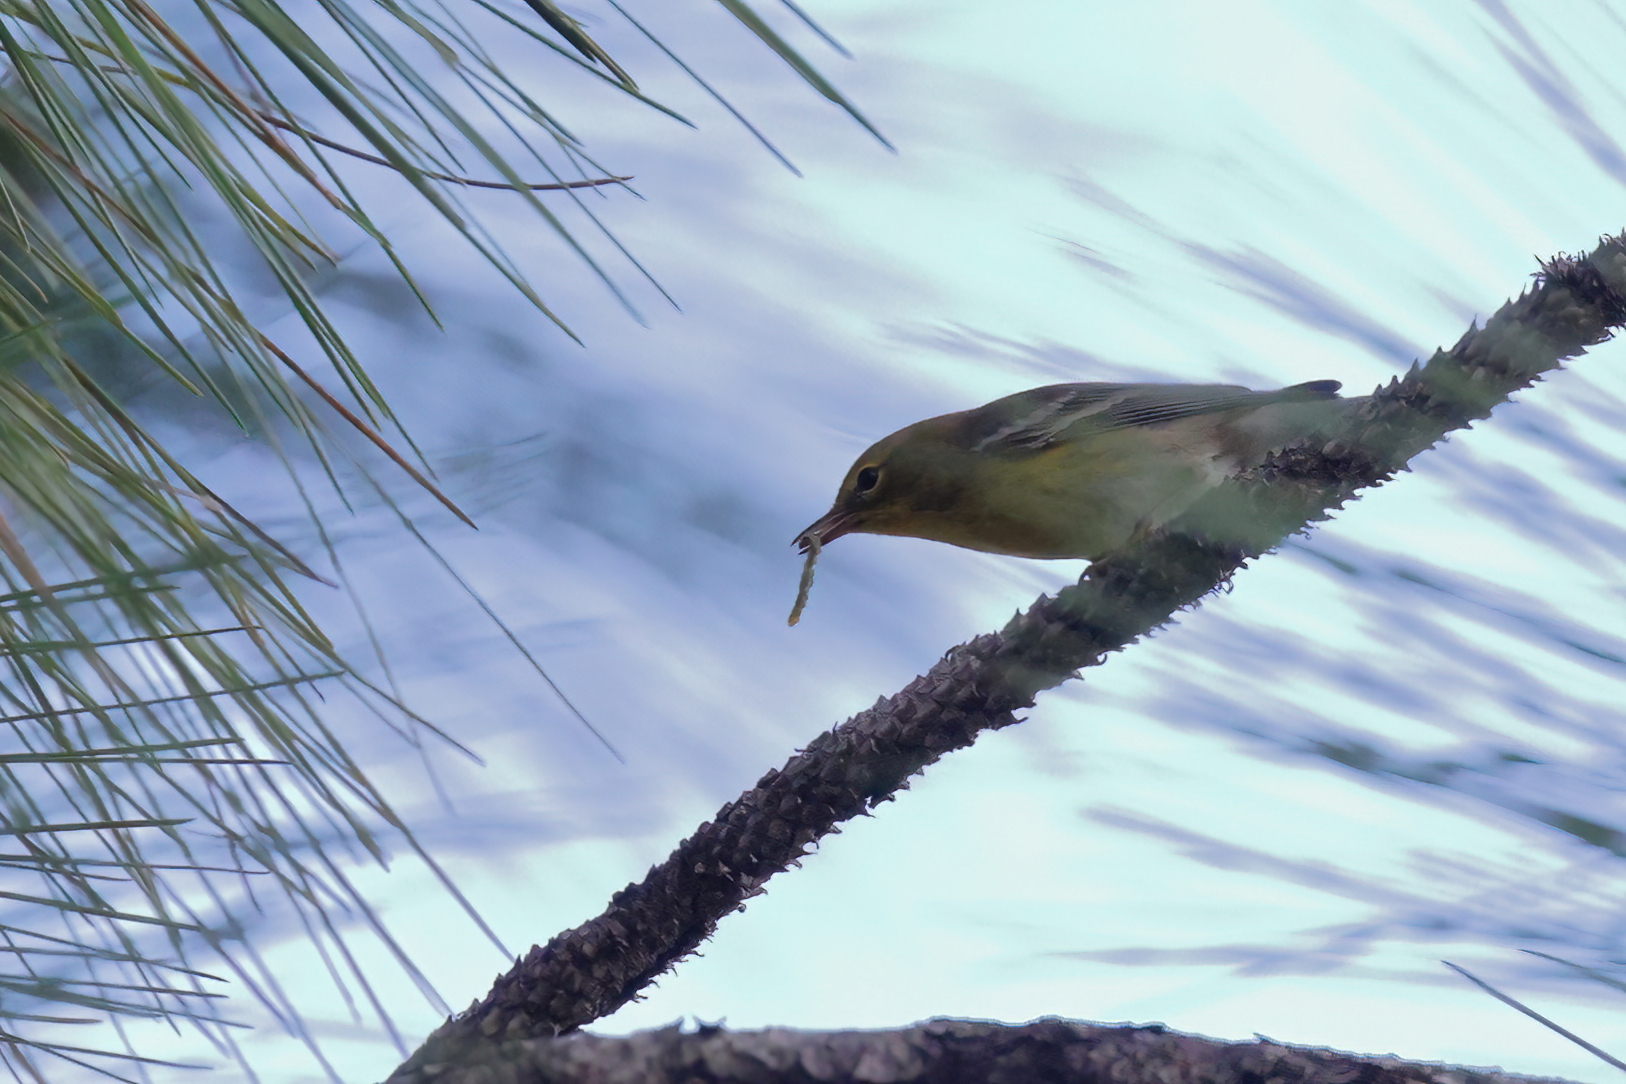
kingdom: Animalia
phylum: Chordata
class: Aves
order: Passeriformes
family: Parulidae
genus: Setophaga
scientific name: Setophaga pinus
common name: Pine warbler
